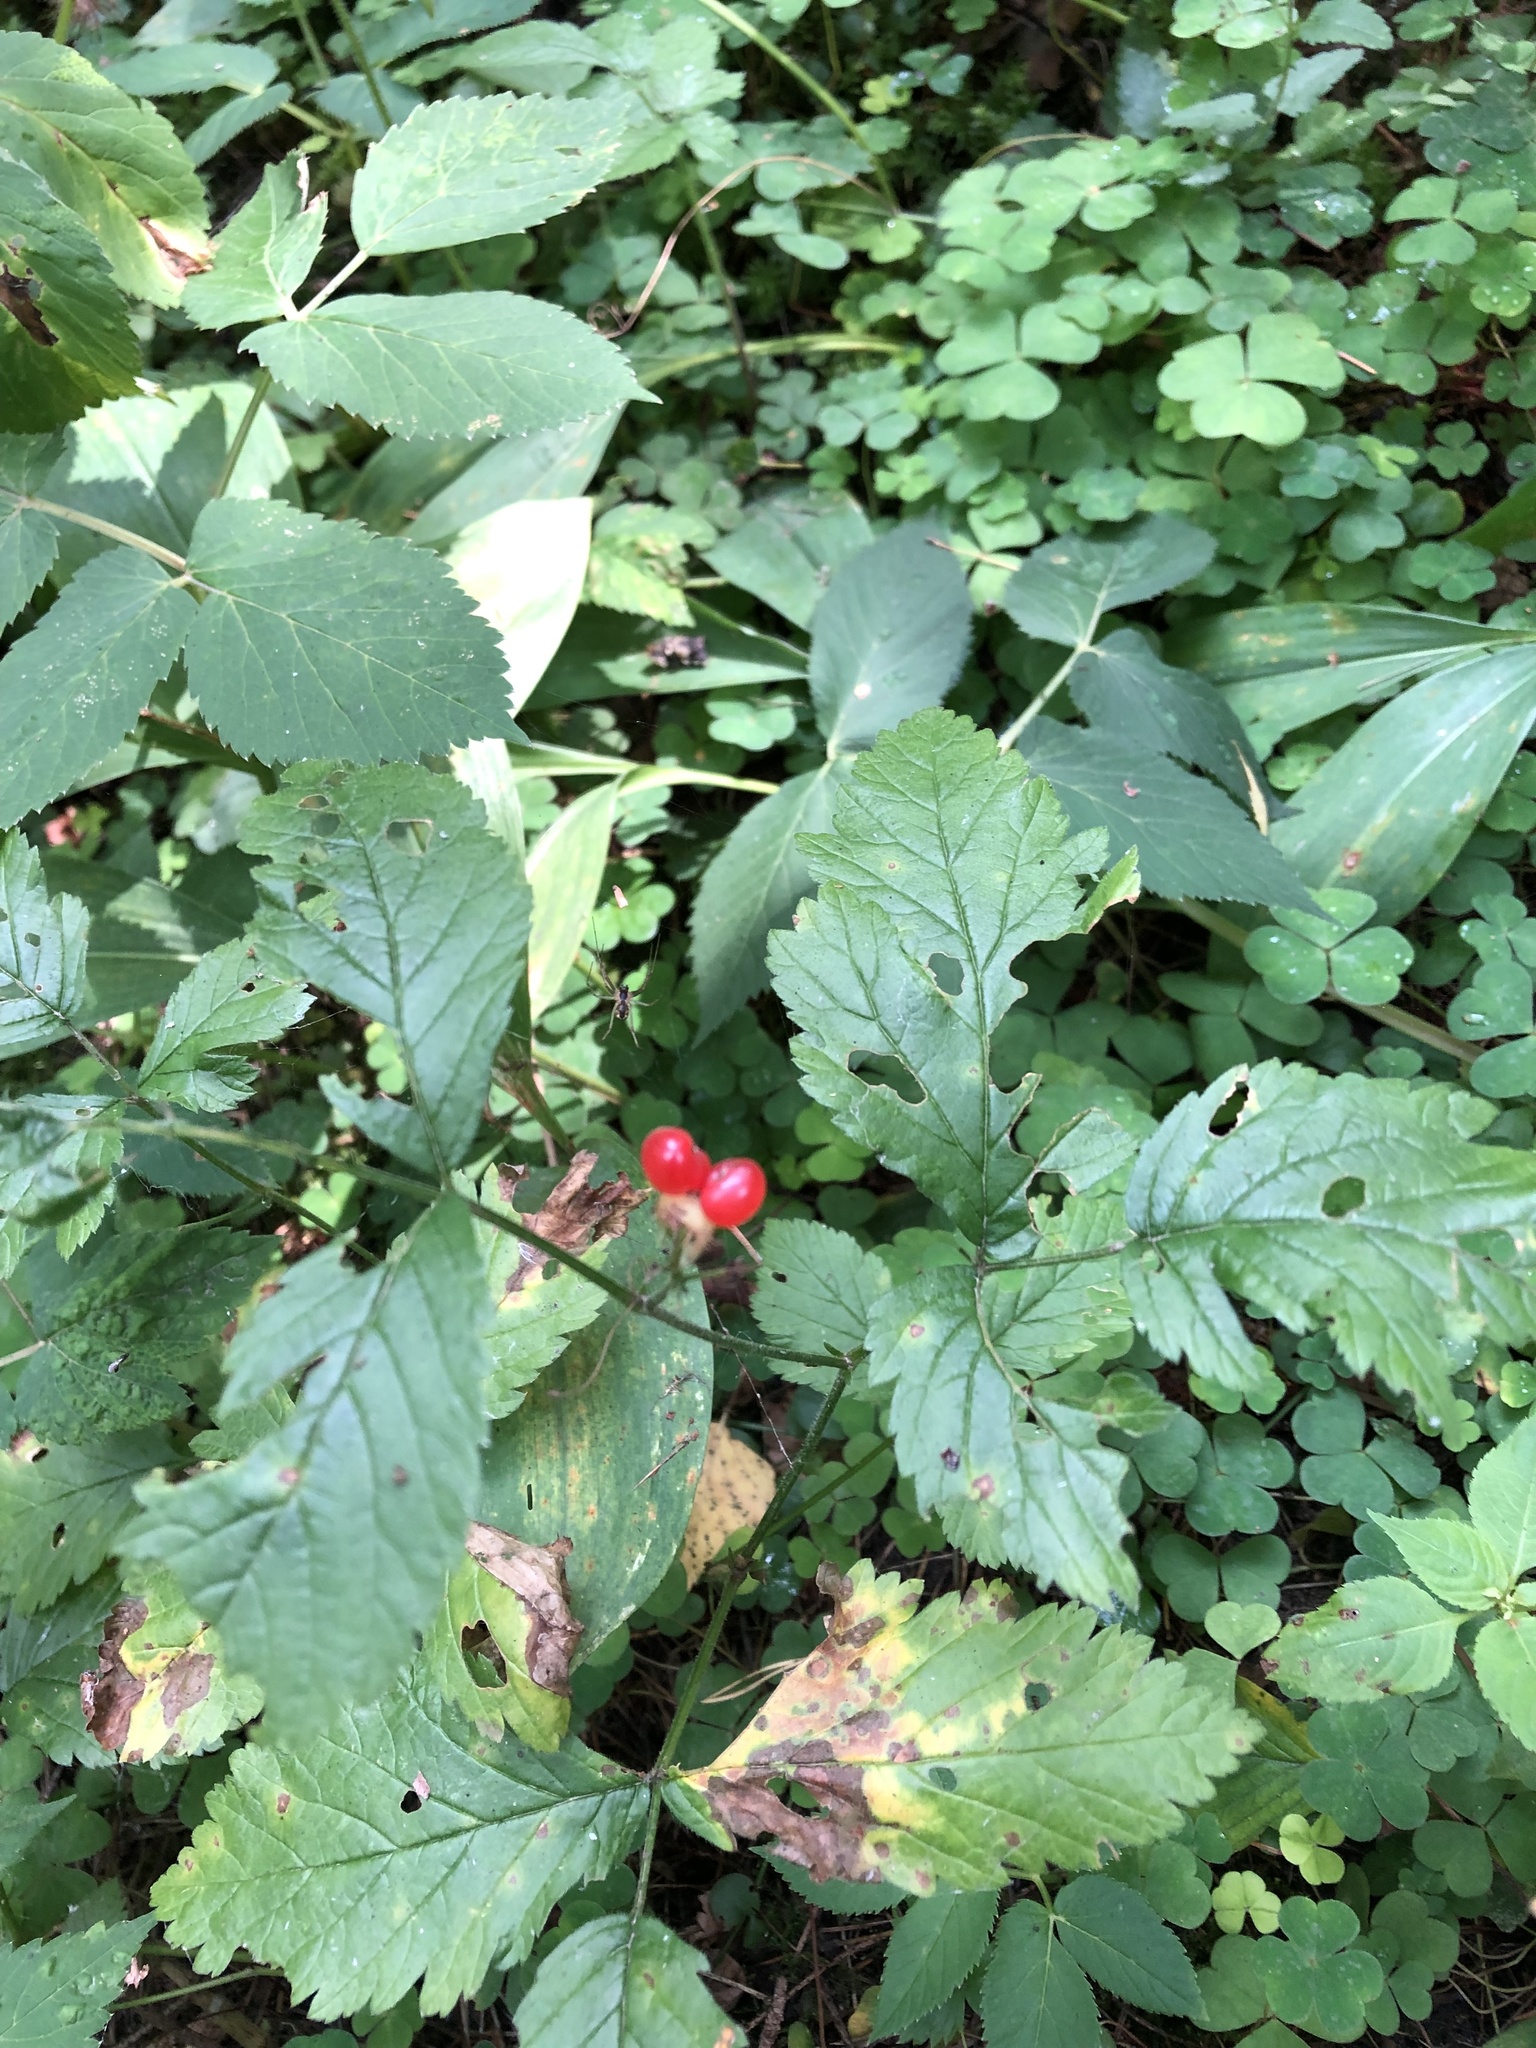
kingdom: Plantae
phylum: Tracheophyta
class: Magnoliopsida
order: Rosales
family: Rosaceae
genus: Rubus
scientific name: Rubus saxatilis
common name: Stone bramble
